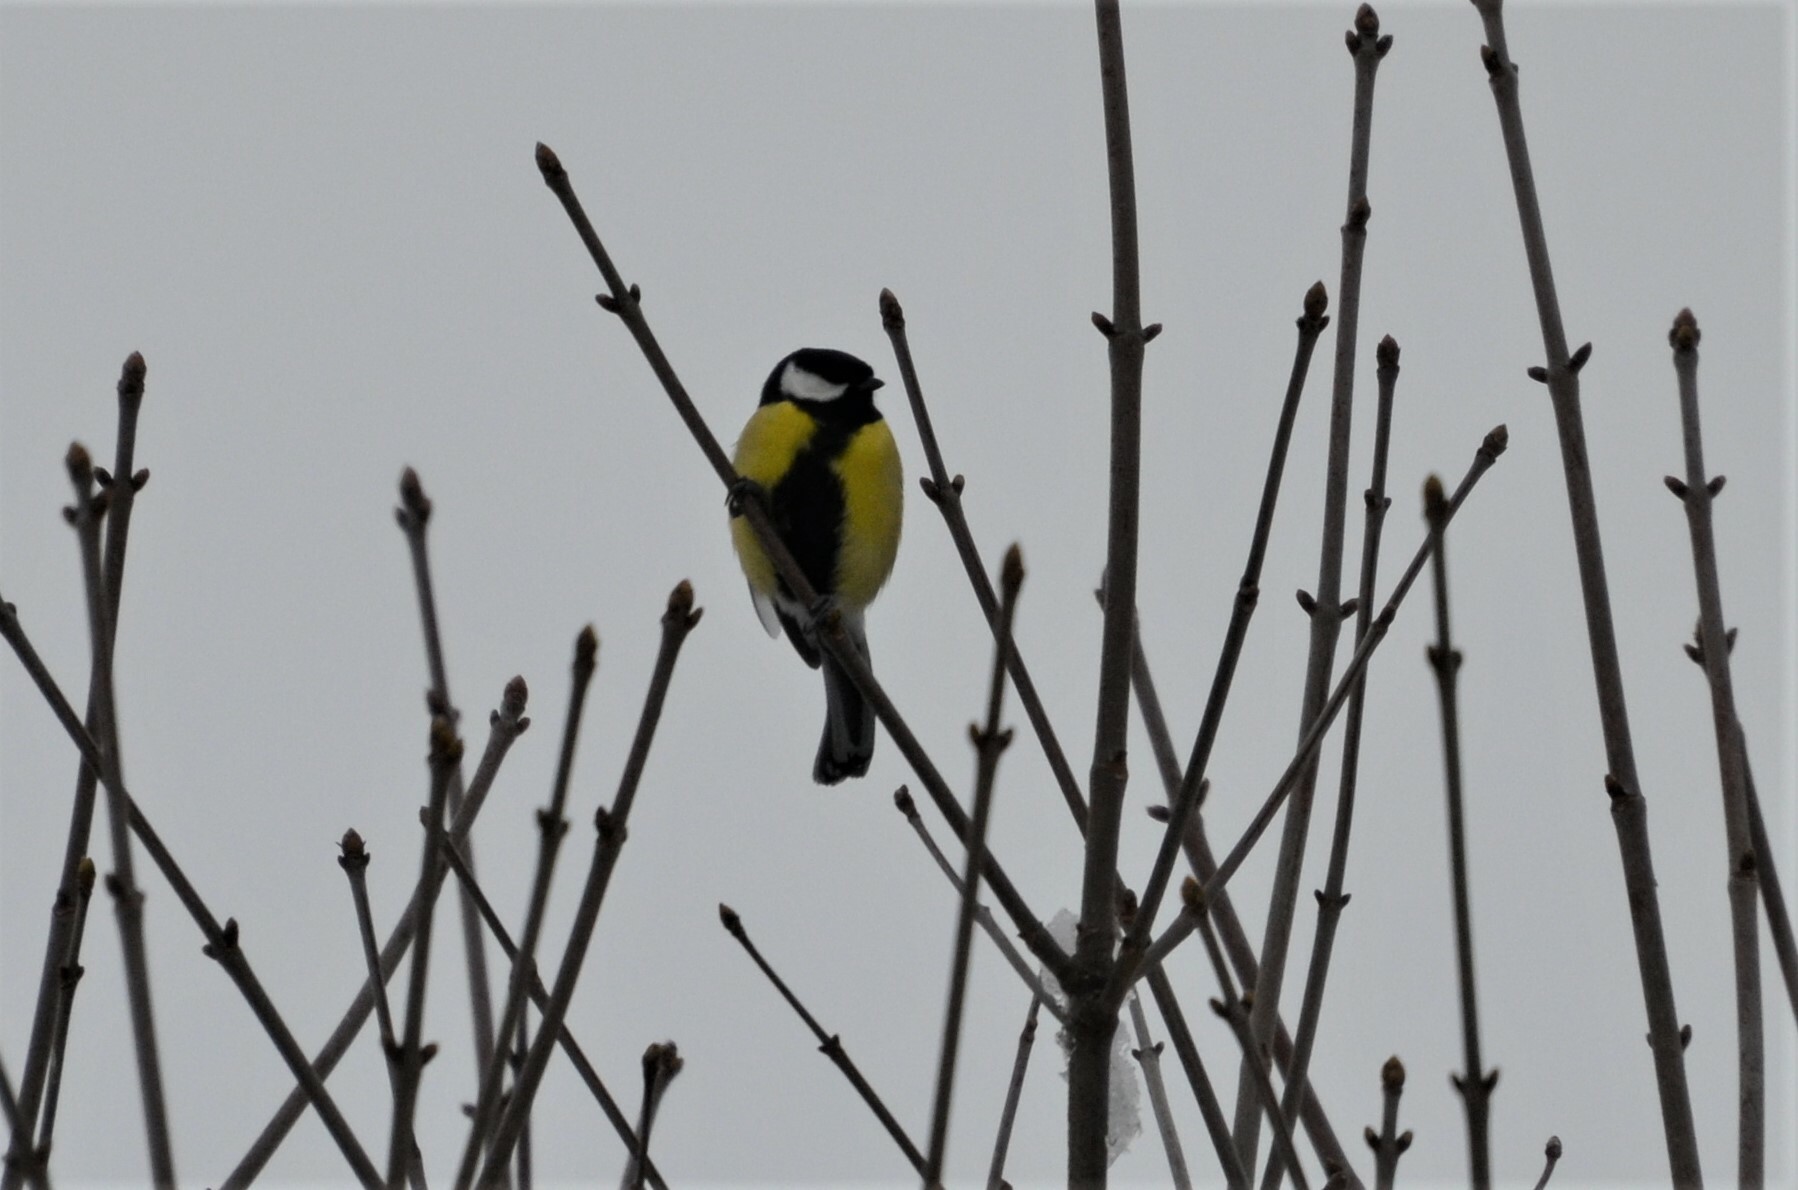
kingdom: Animalia
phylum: Chordata
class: Aves
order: Passeriformes
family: Paridae
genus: Parus
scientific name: Parus major
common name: Great tit
